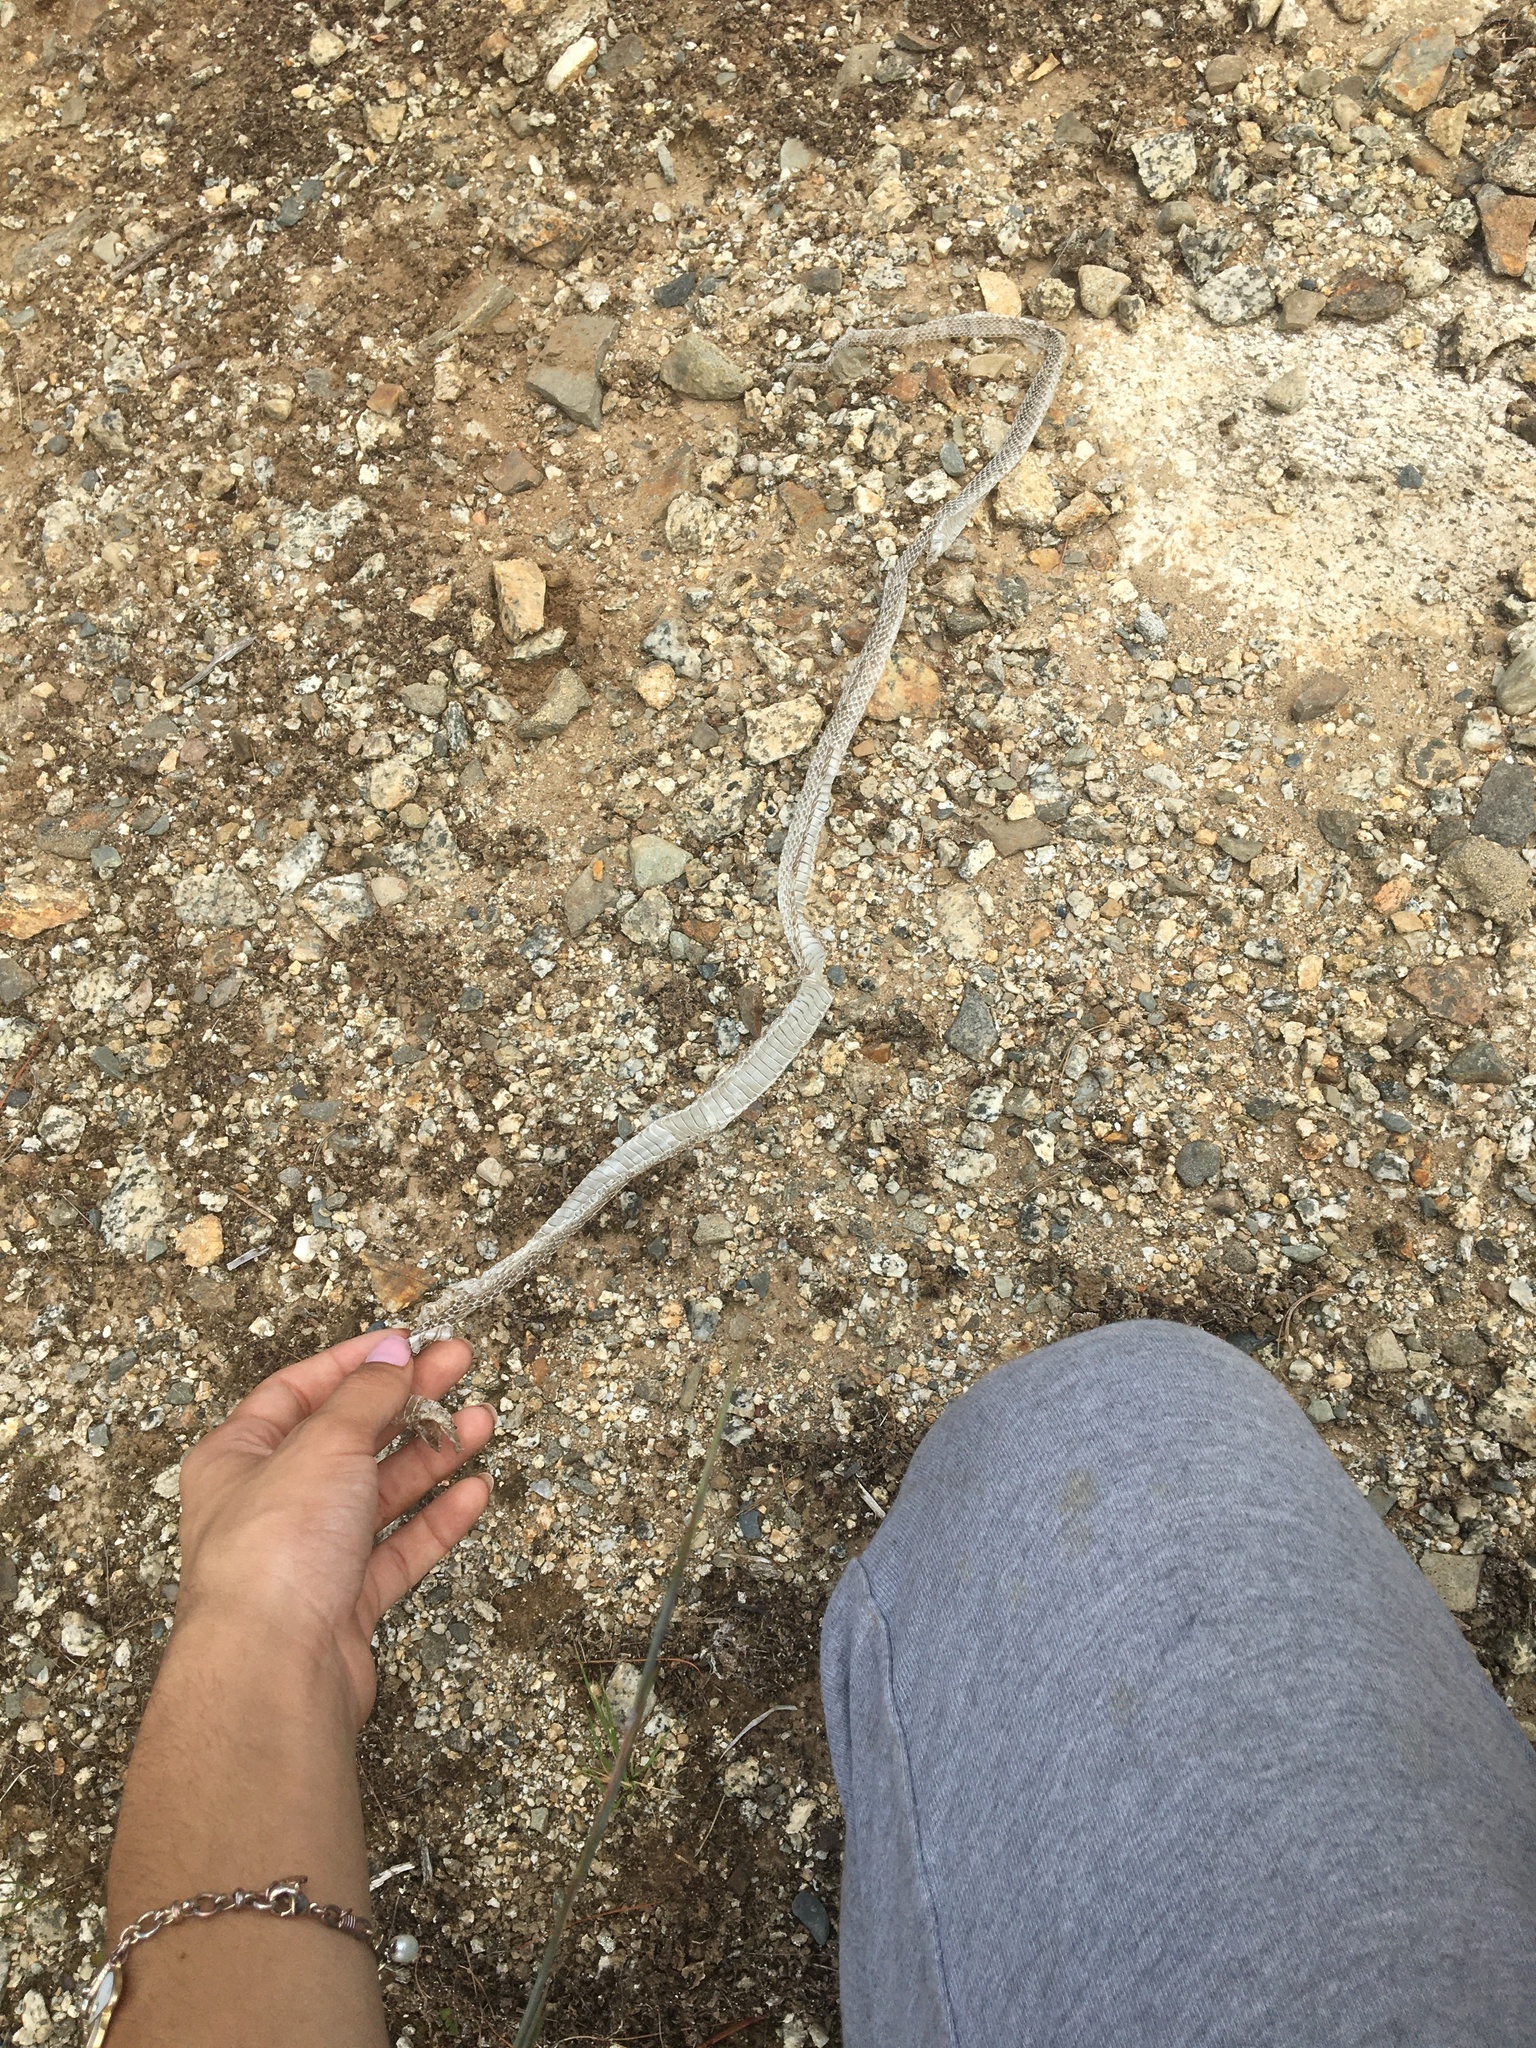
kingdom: Animalia
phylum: Chordata
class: Squamata
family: Colubridae
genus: Lampropeltis
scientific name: Lampropeltis triangulum
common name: Eastern milksnake
